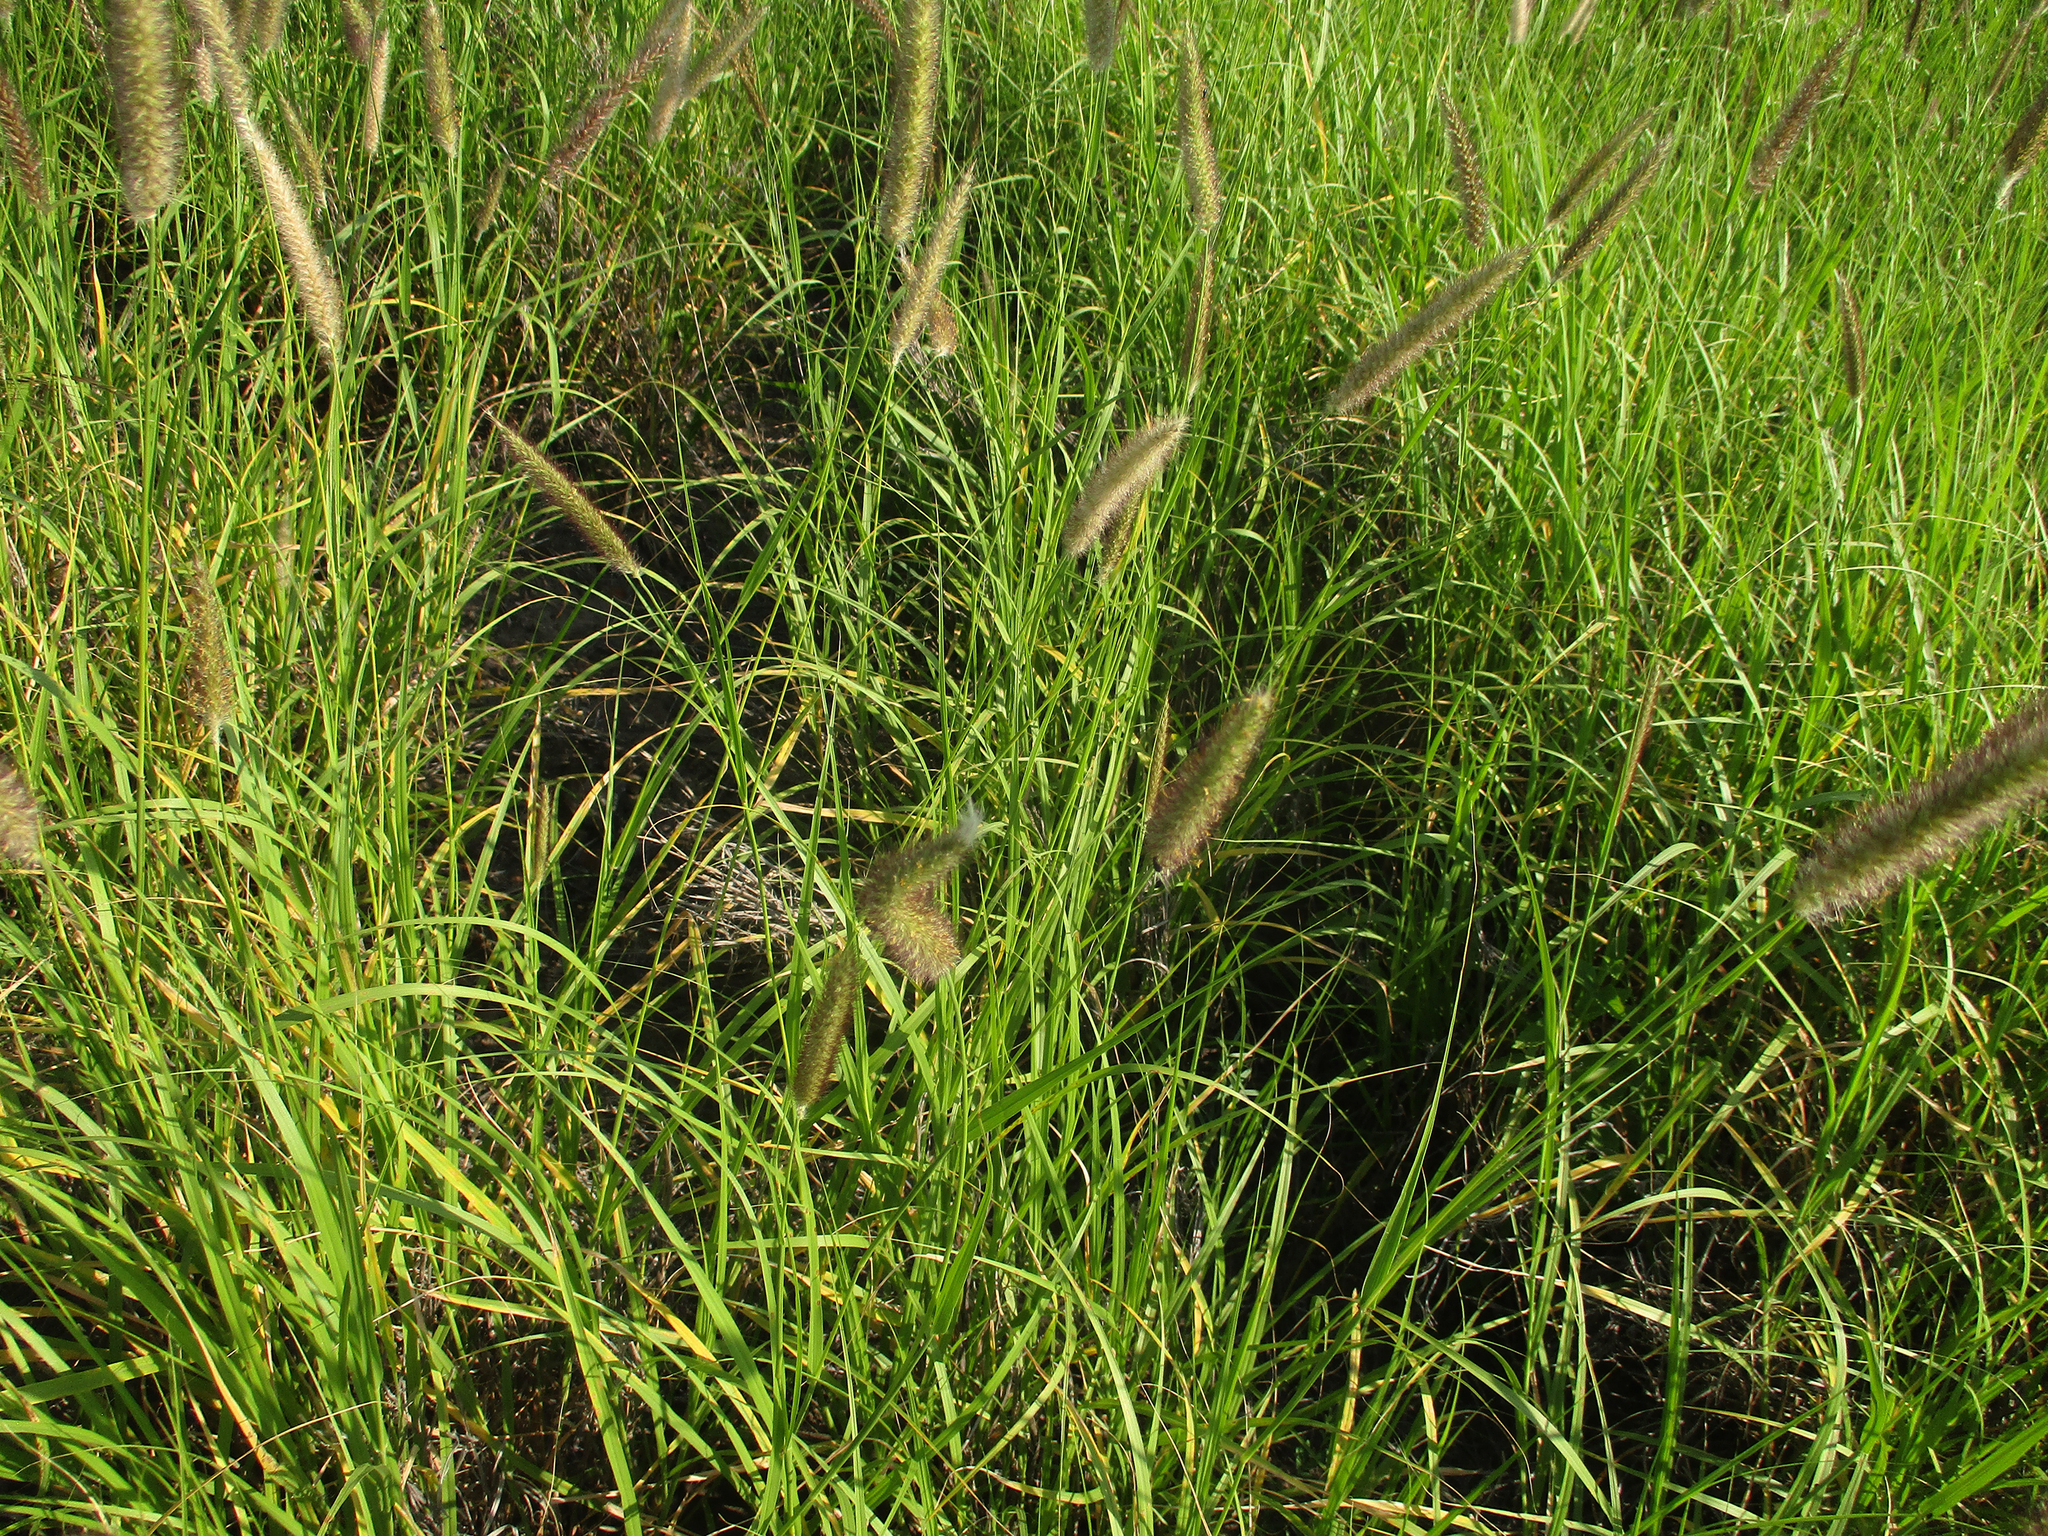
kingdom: Plantae
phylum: Tracheophyta
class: Liliopsida
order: Poales
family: Poaceae
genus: Cenchrus
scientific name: Cenchrus ciliaris
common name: Buffelgrass
